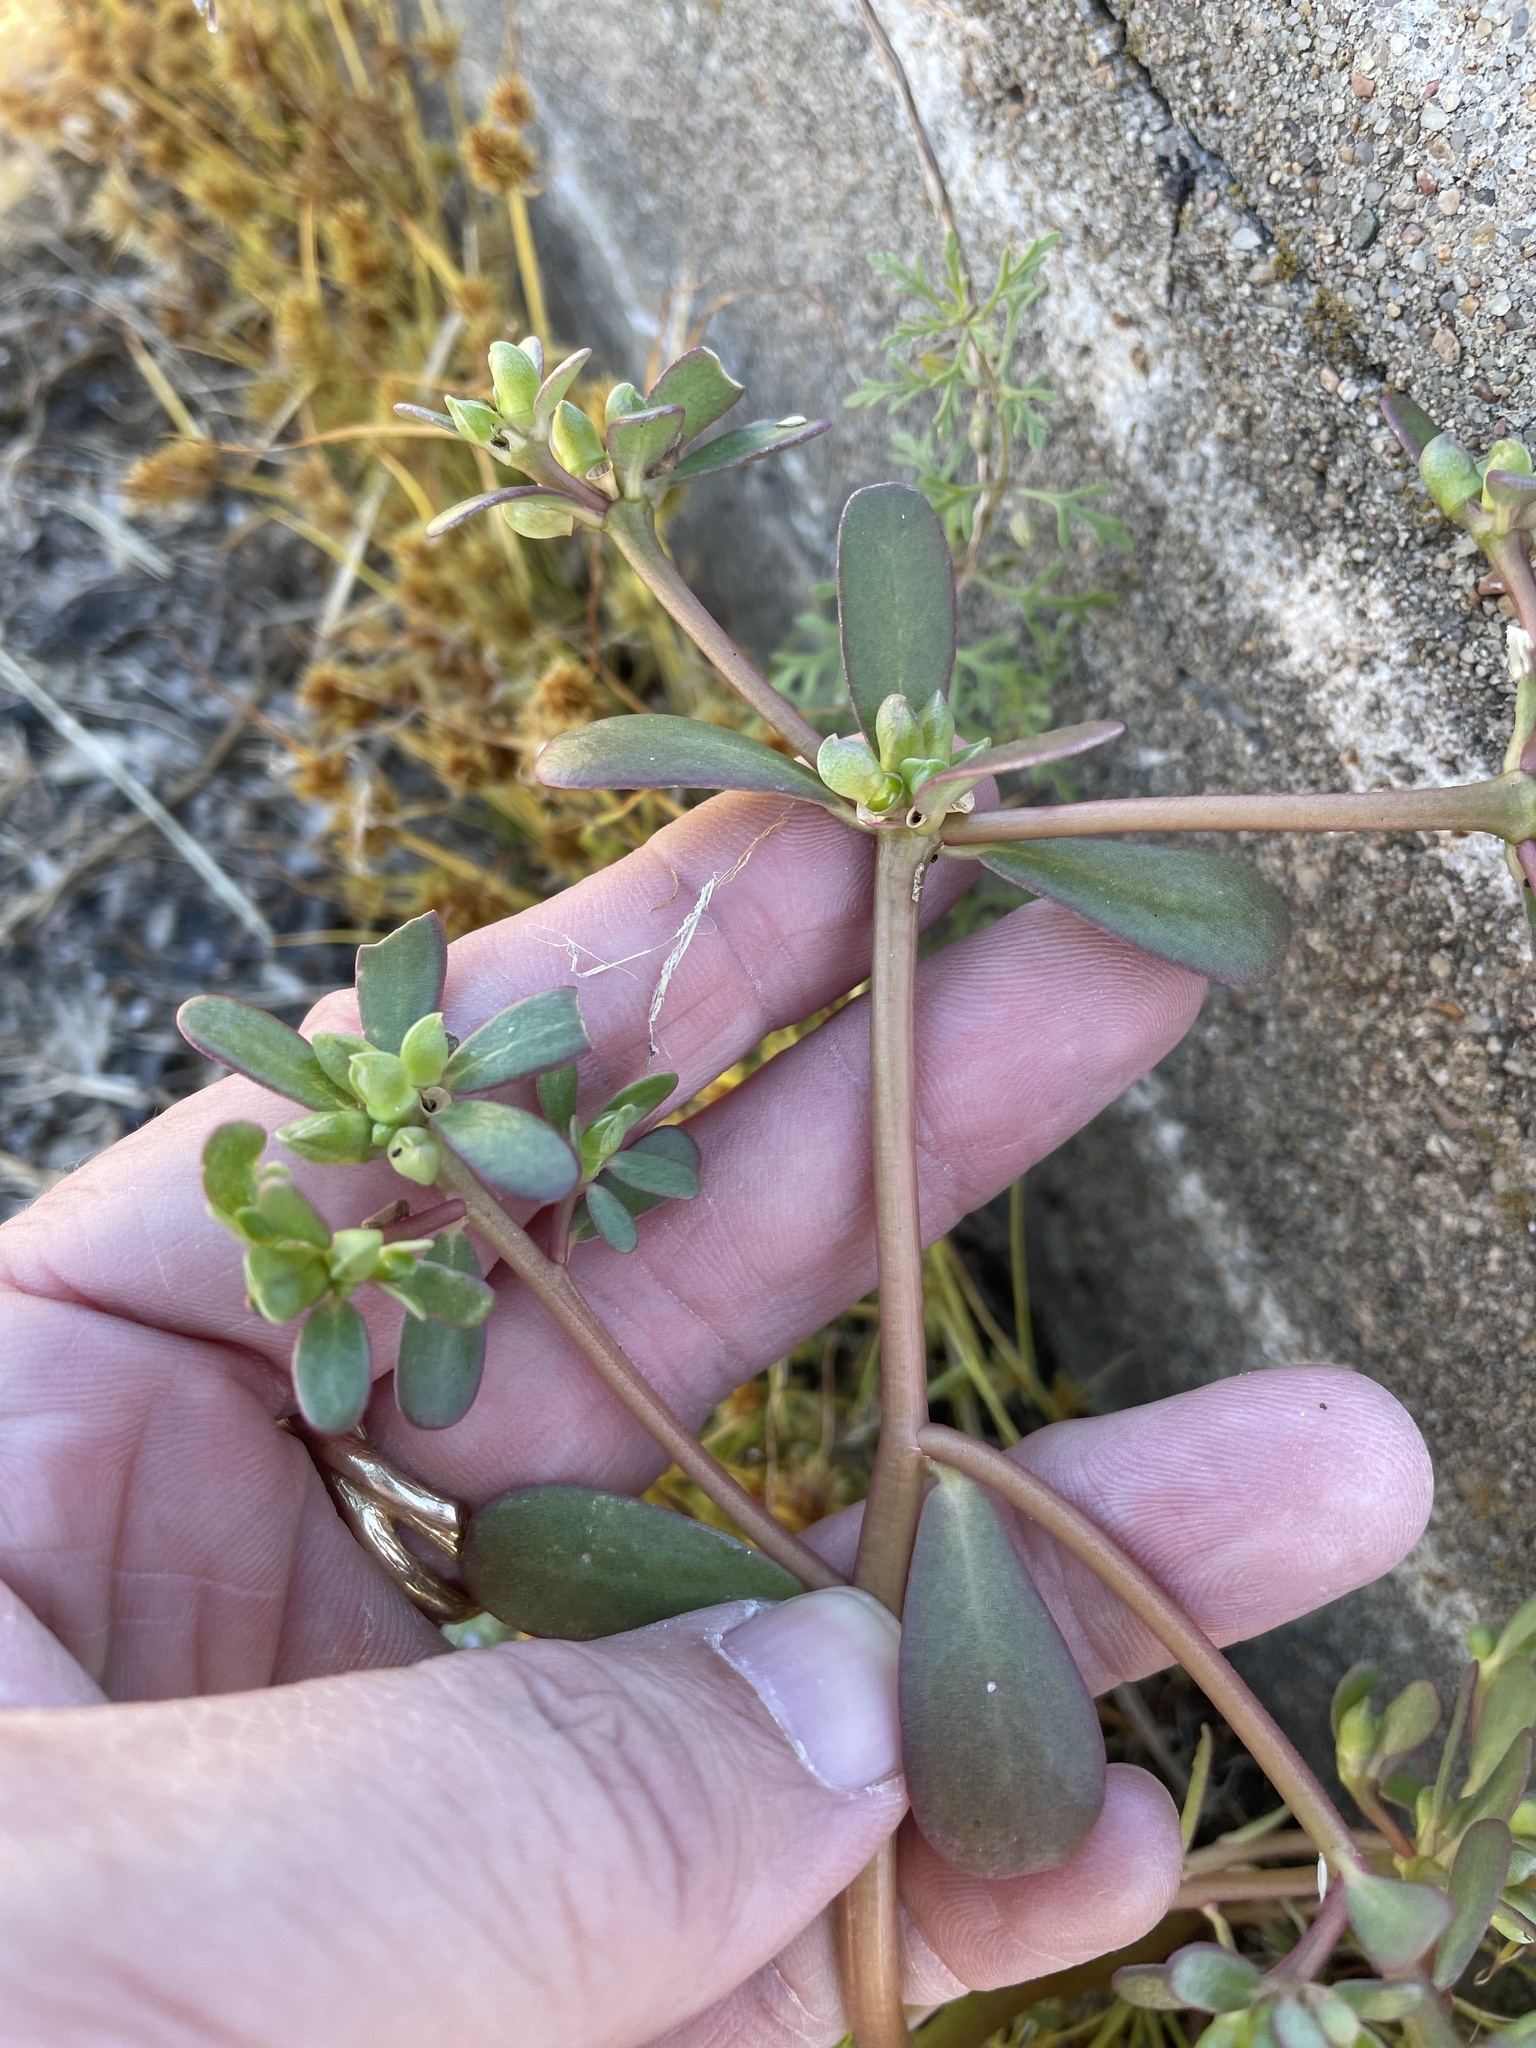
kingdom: Plantae
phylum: Tracheophyta
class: Magnoliopsida
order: Caryophyllales
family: Portulacaceae
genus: Portulaca
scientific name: Portulaca oleracea
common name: Common purslane
